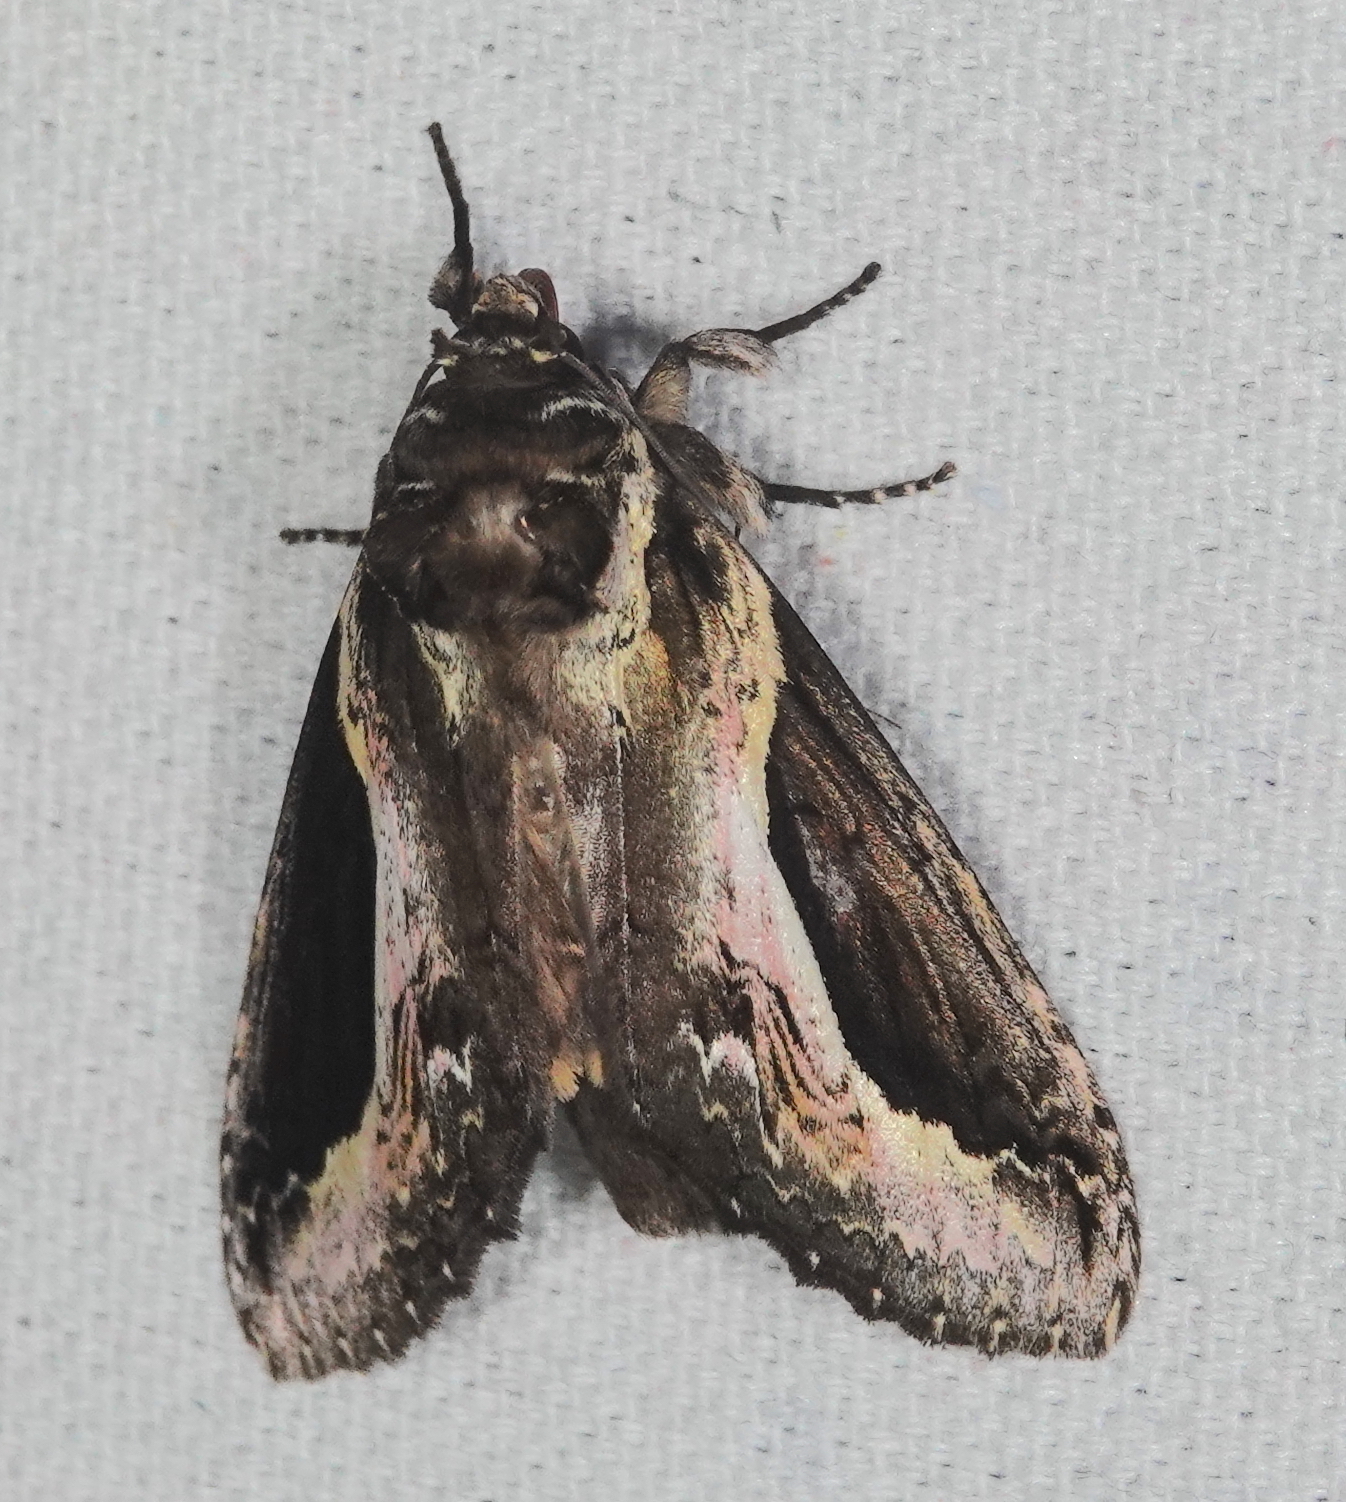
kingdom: Animalia
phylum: Arthropoda
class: Insecta
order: Lepidoptera
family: Notodontidae
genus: Rhuda
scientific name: Rhuda focula
